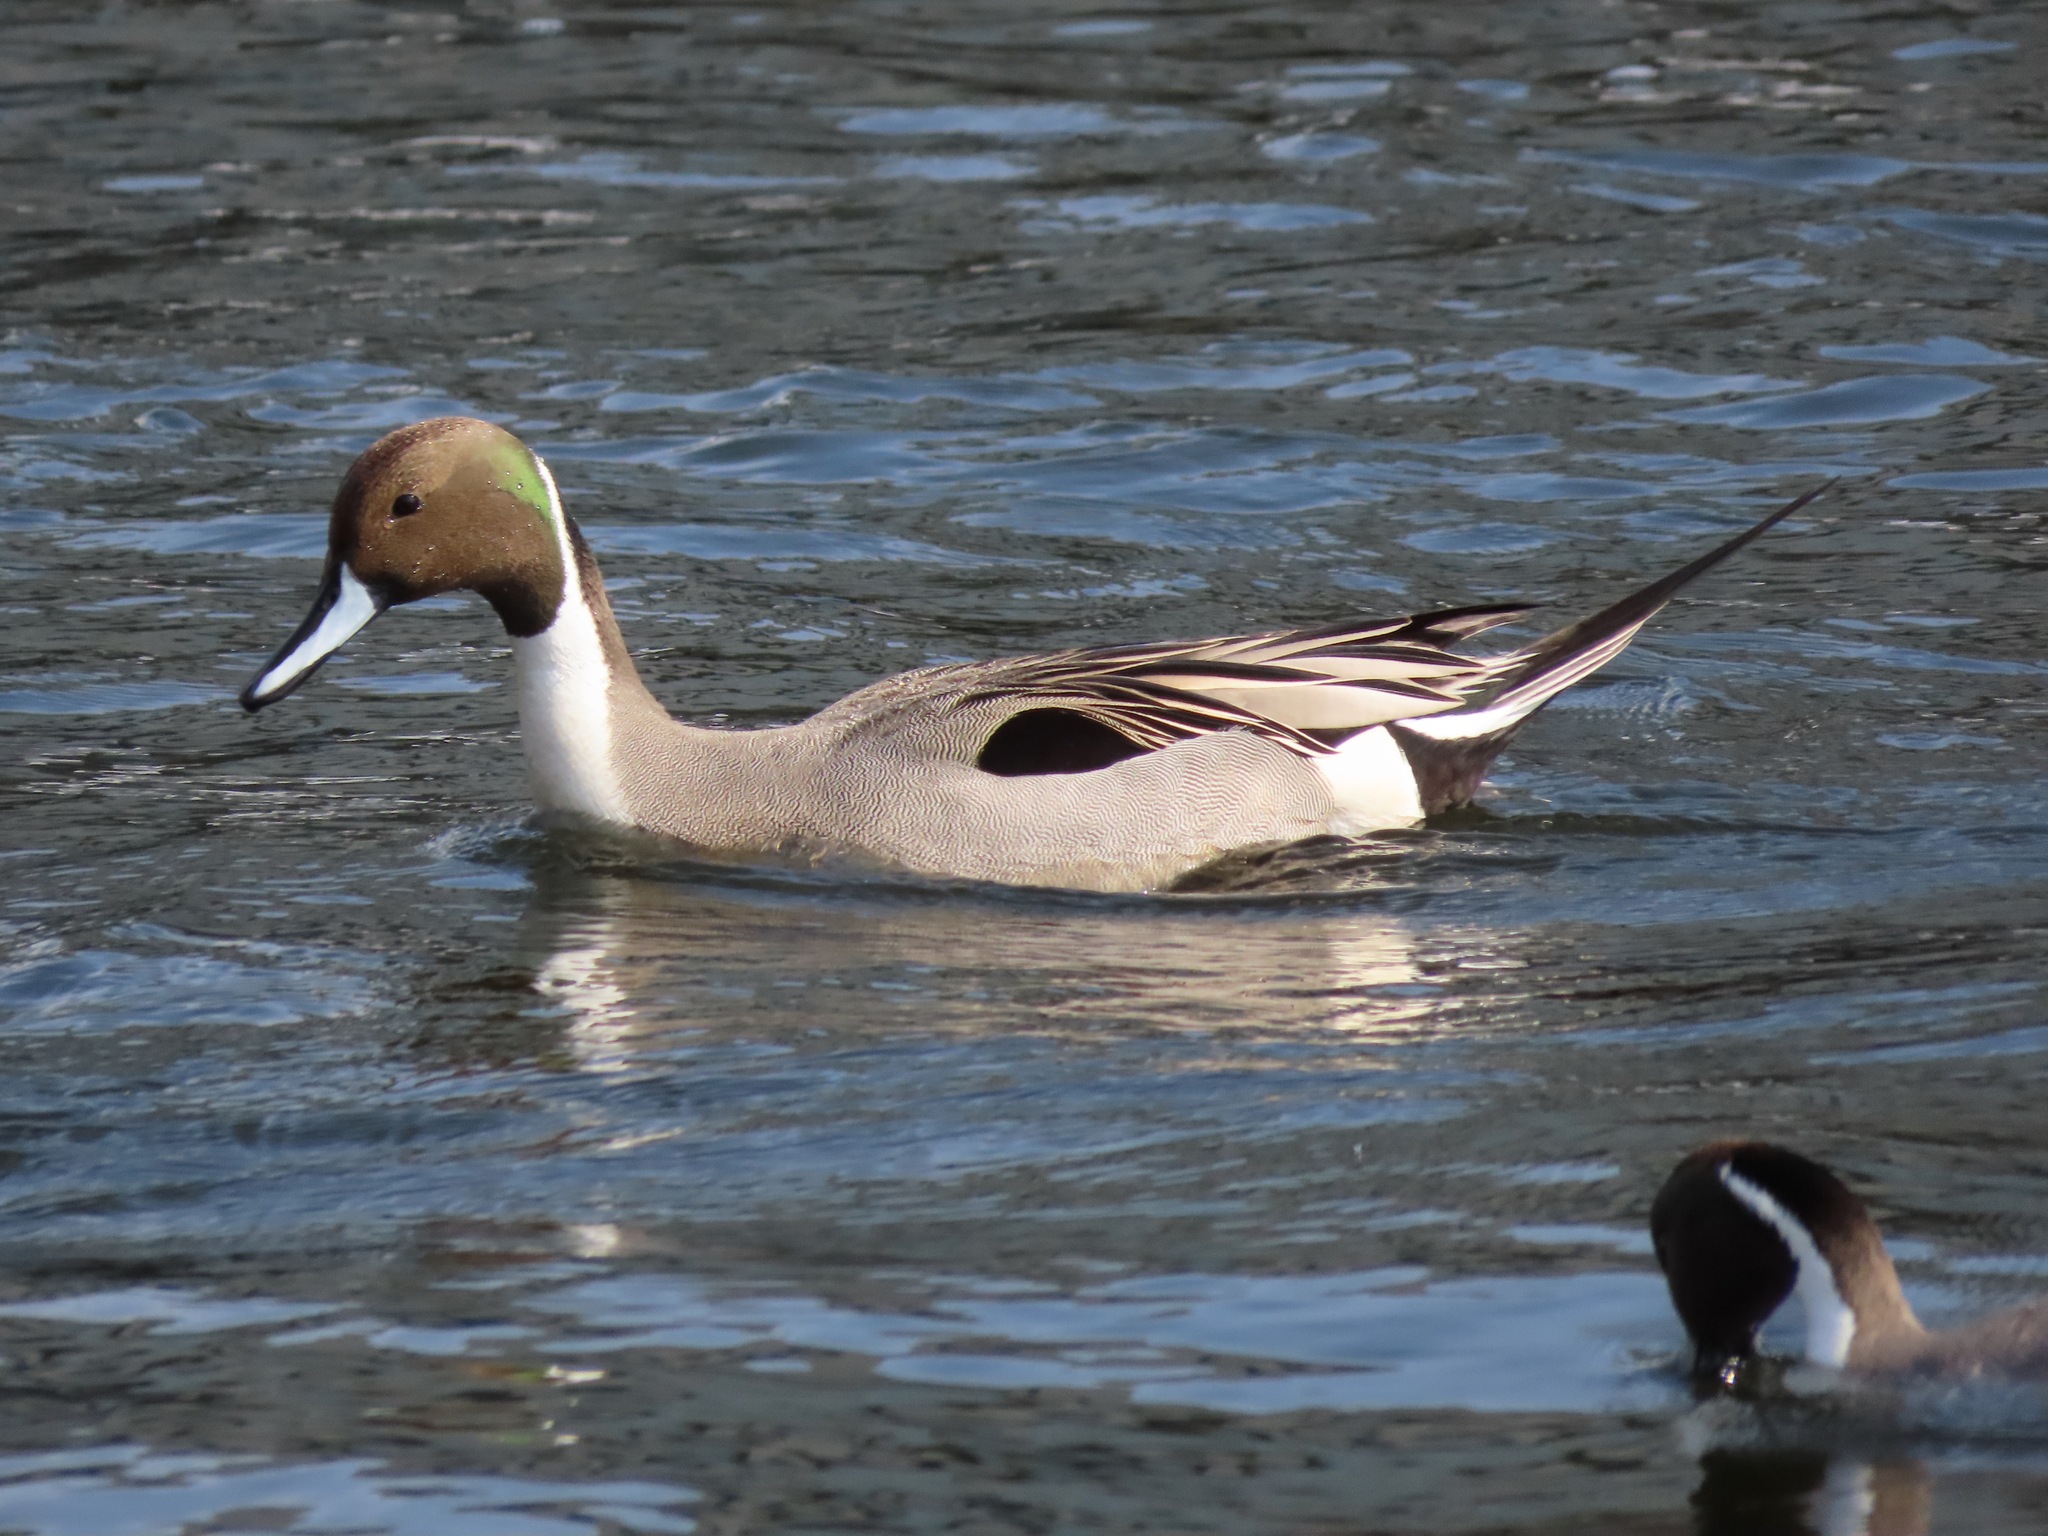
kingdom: Animalia
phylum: Chordata
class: Aves
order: Anseriformes
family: Anatidae
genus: Anas
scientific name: Anas acuta
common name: Northern pintail
